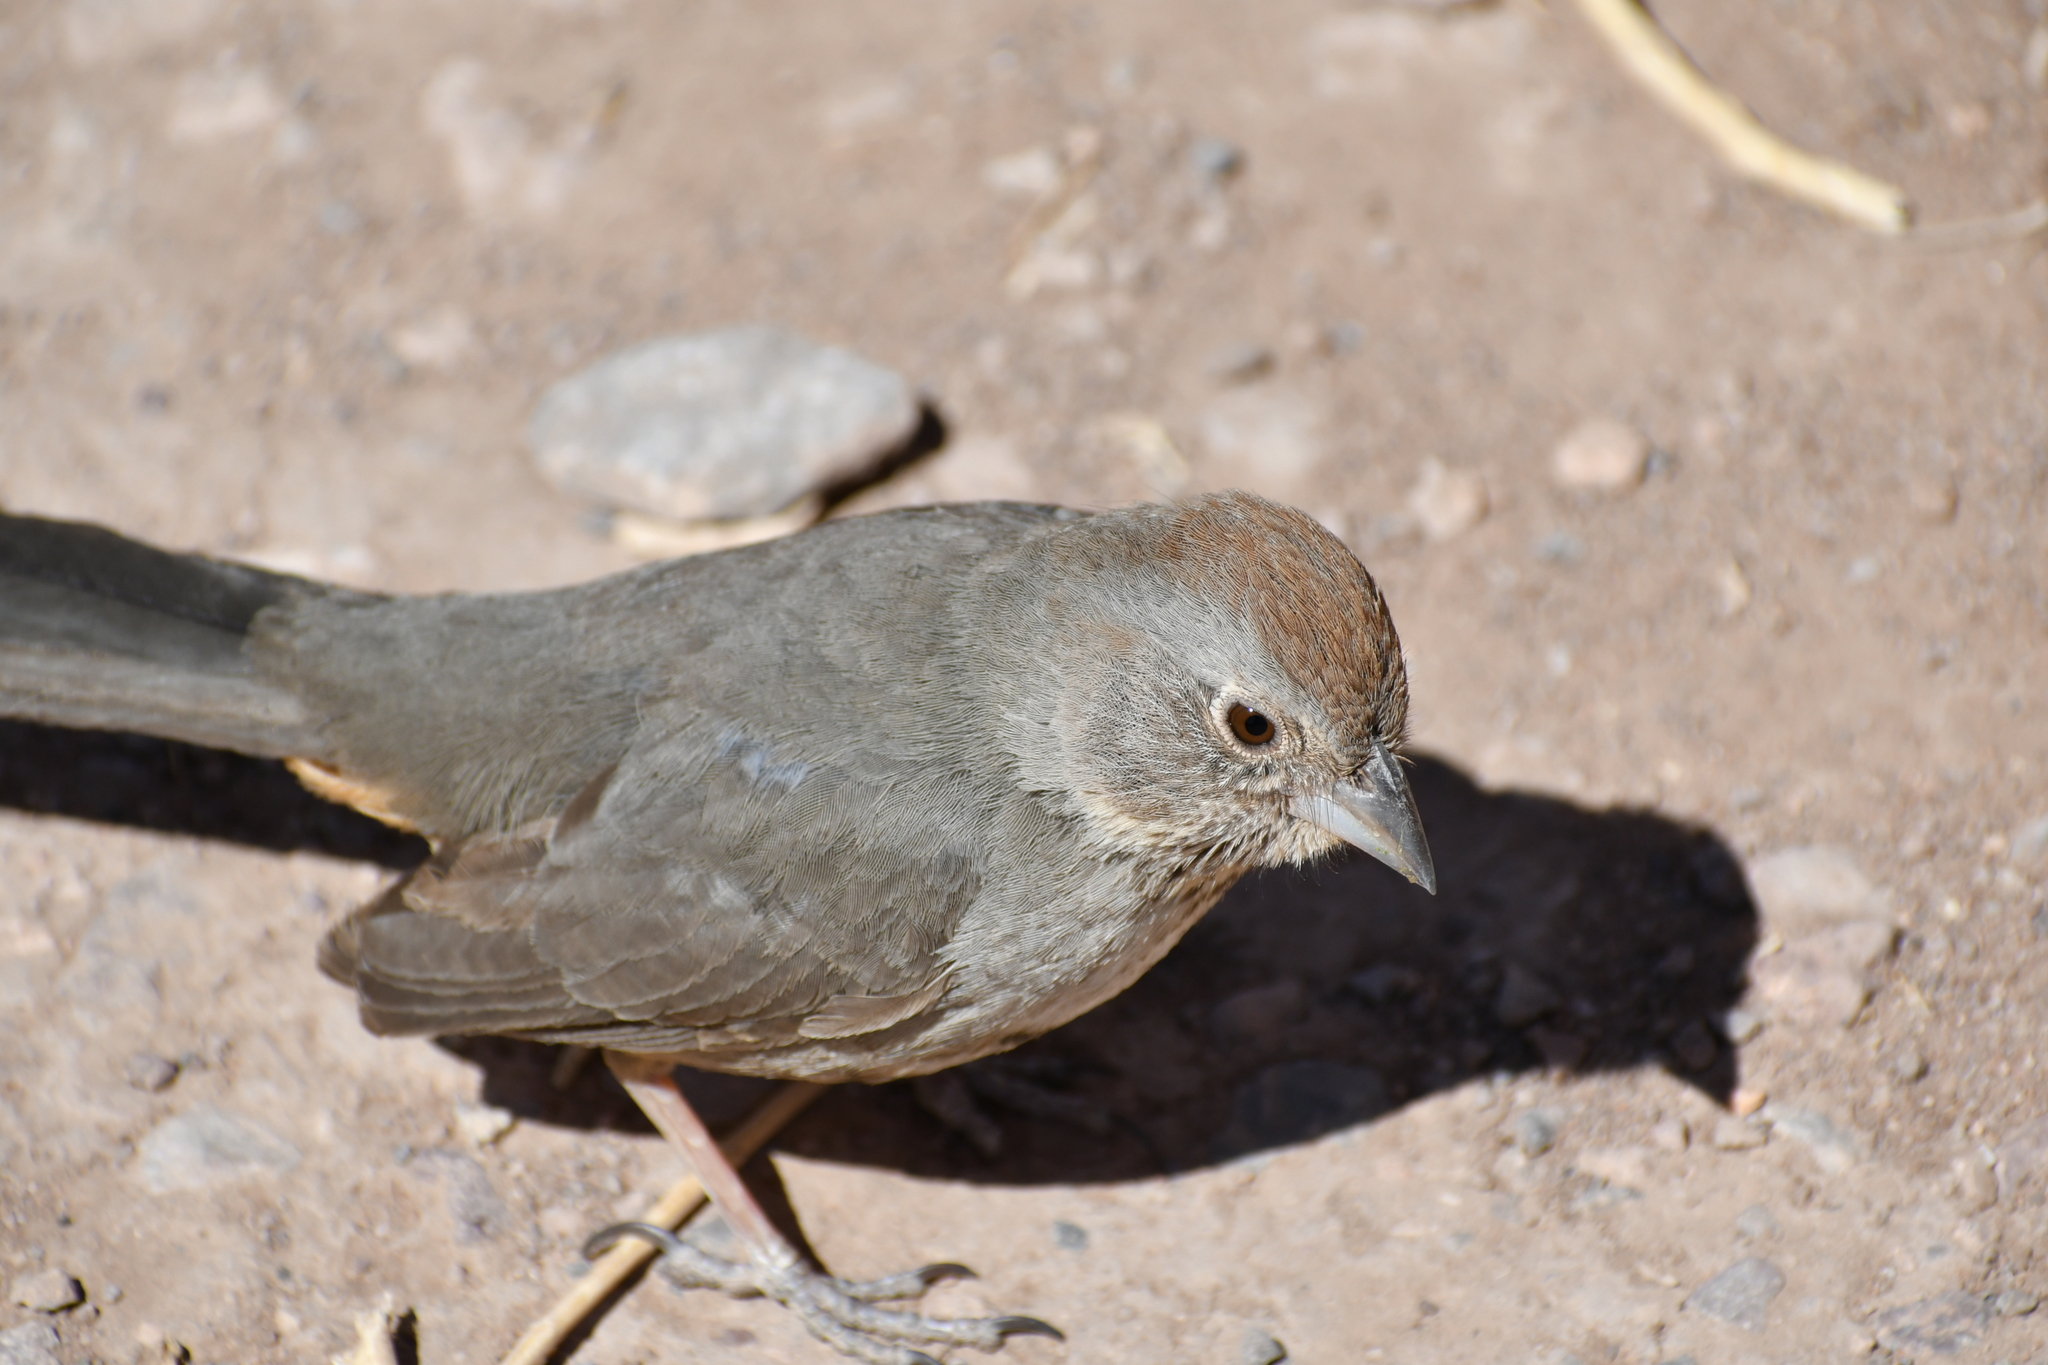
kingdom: Animalia
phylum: Chordata
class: Aves
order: Passeriformes
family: Passerellidae
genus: Melozone
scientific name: Melozone fusca
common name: Canyon towhee
